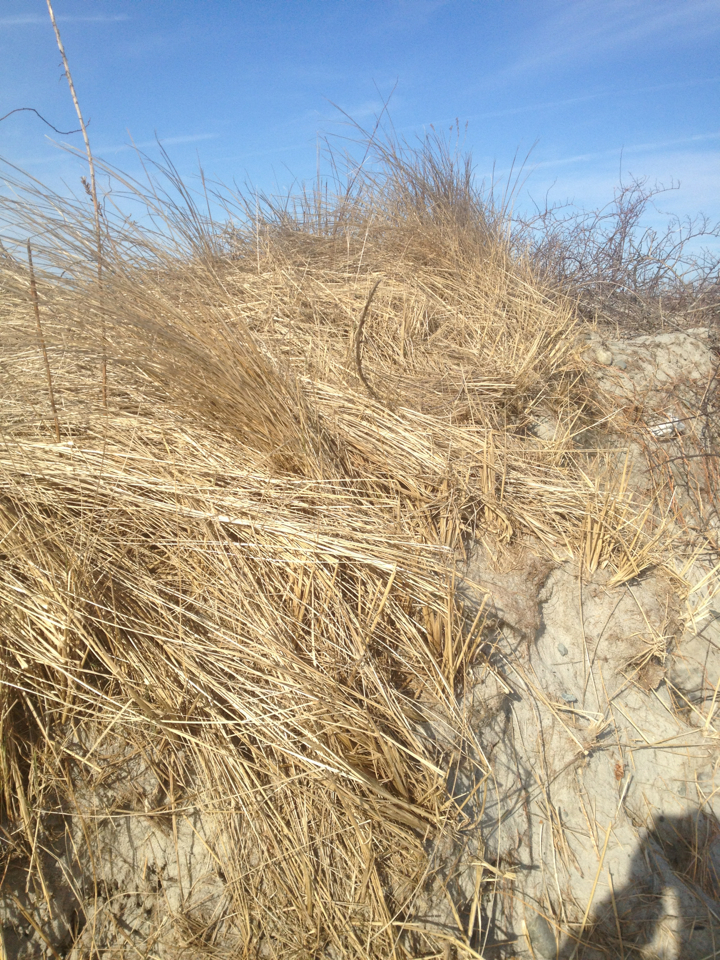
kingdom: Plantae
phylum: Tracheophyta
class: Liliopsida
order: Poales
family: Poaceae
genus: Calamagrostis
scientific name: Calamagrostis breviligulata
